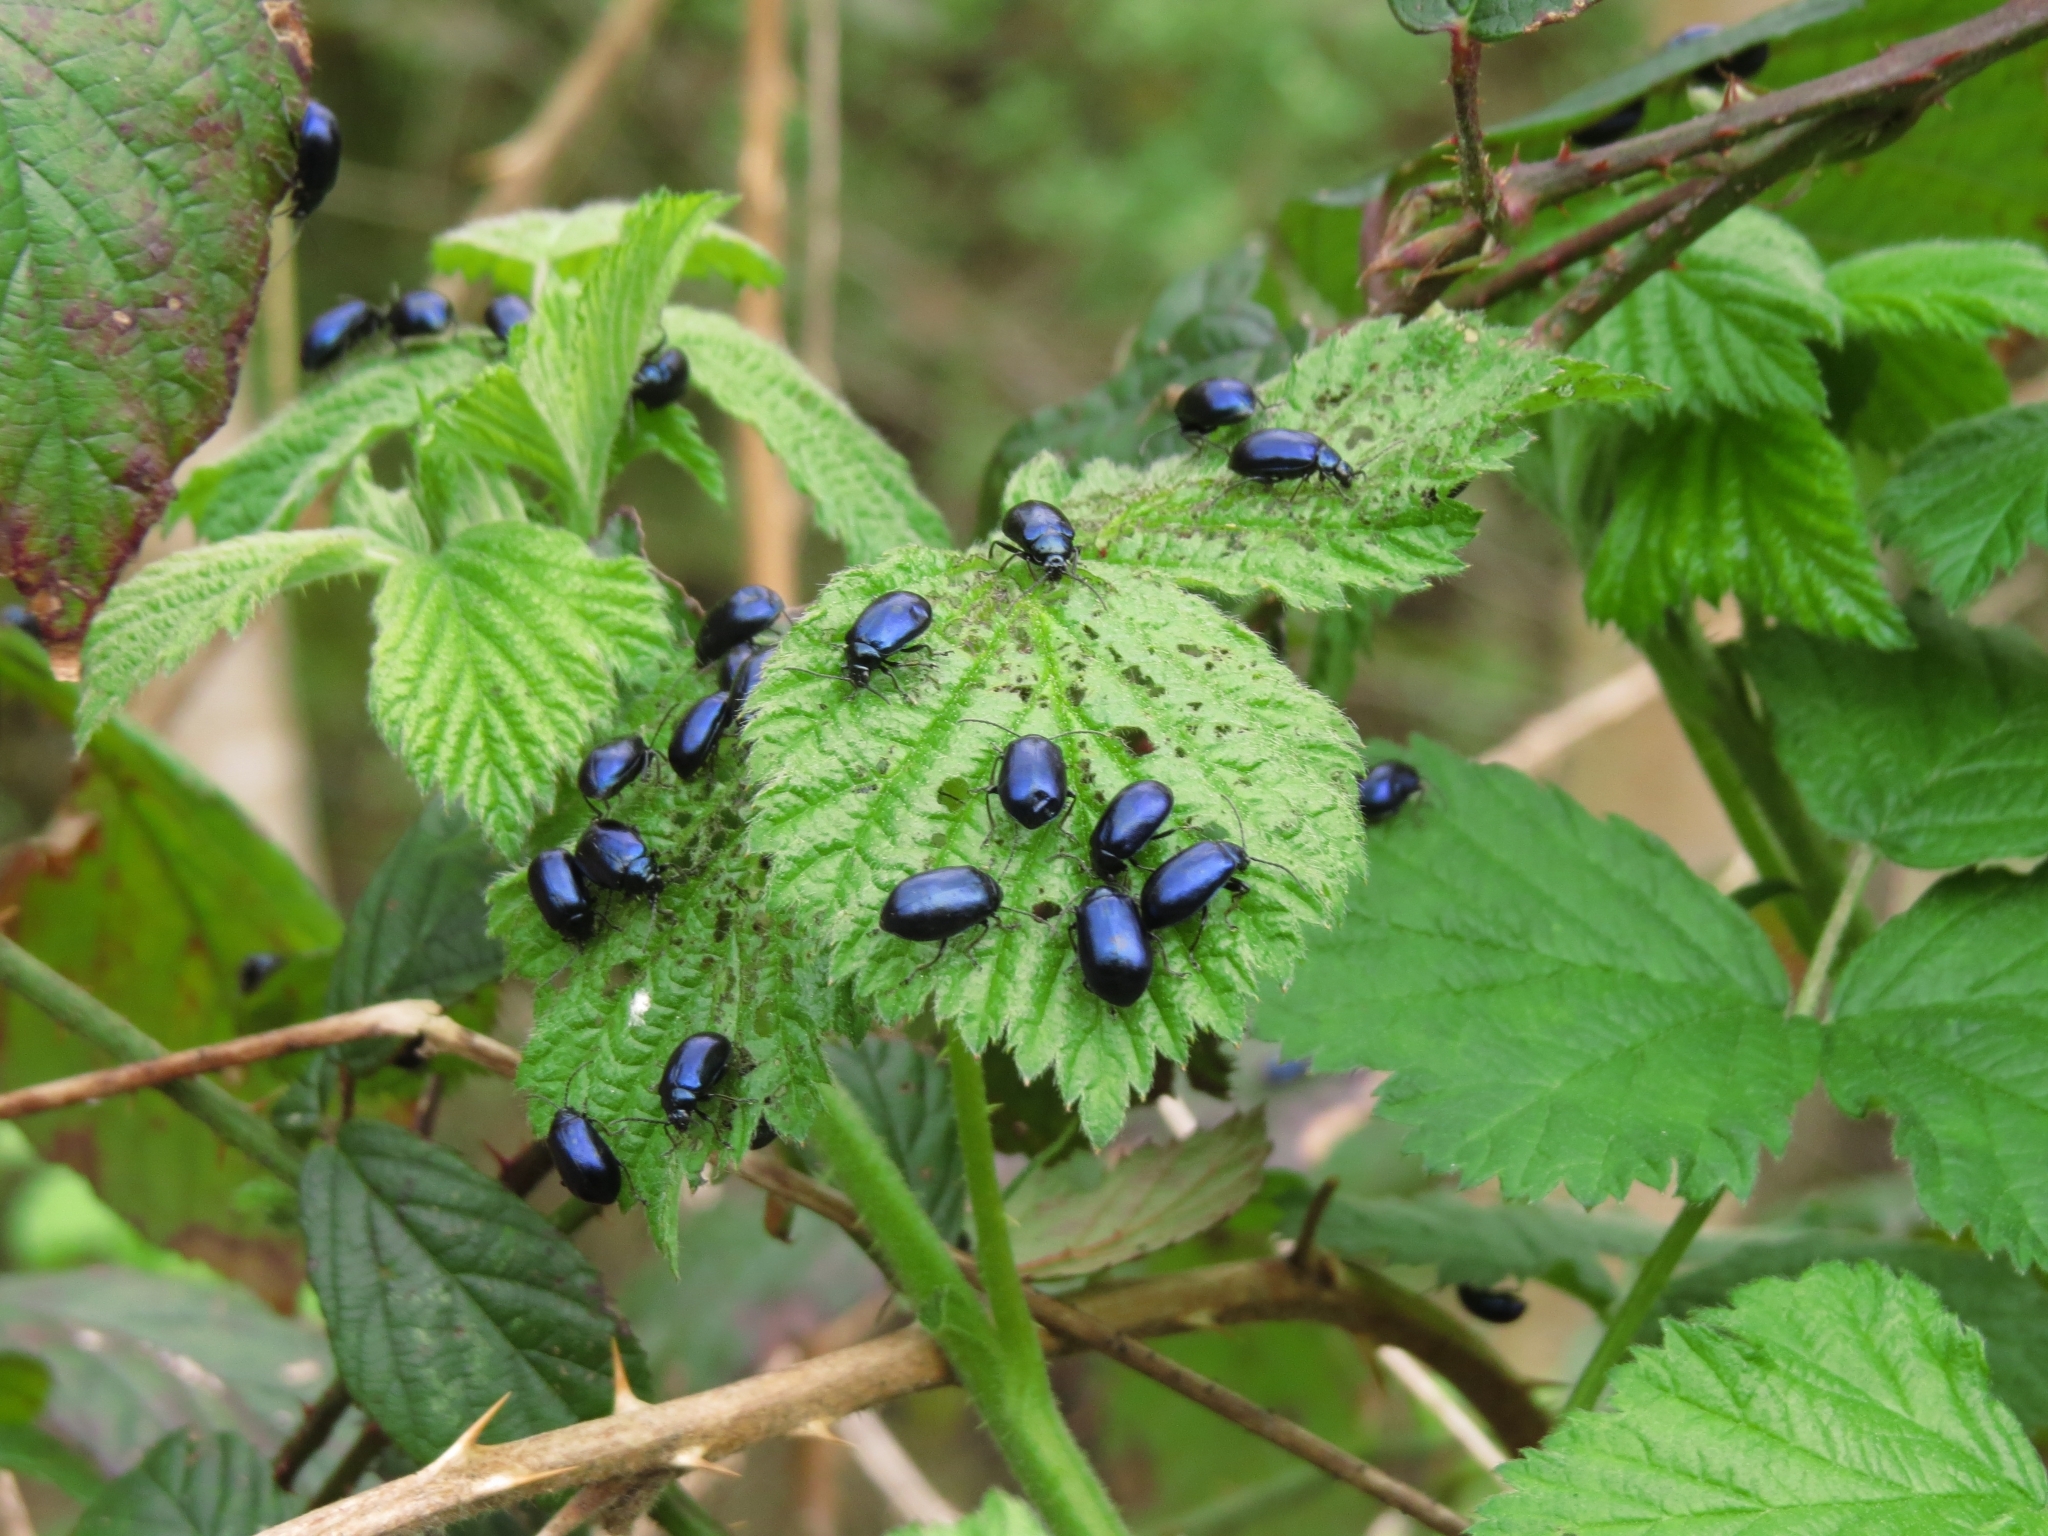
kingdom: Animalia
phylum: Arthropoda
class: Insecta
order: Coleoptera
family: Chrysomelidae
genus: Agelastica
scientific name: Agelastica alni
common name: Alder leaf beetle
